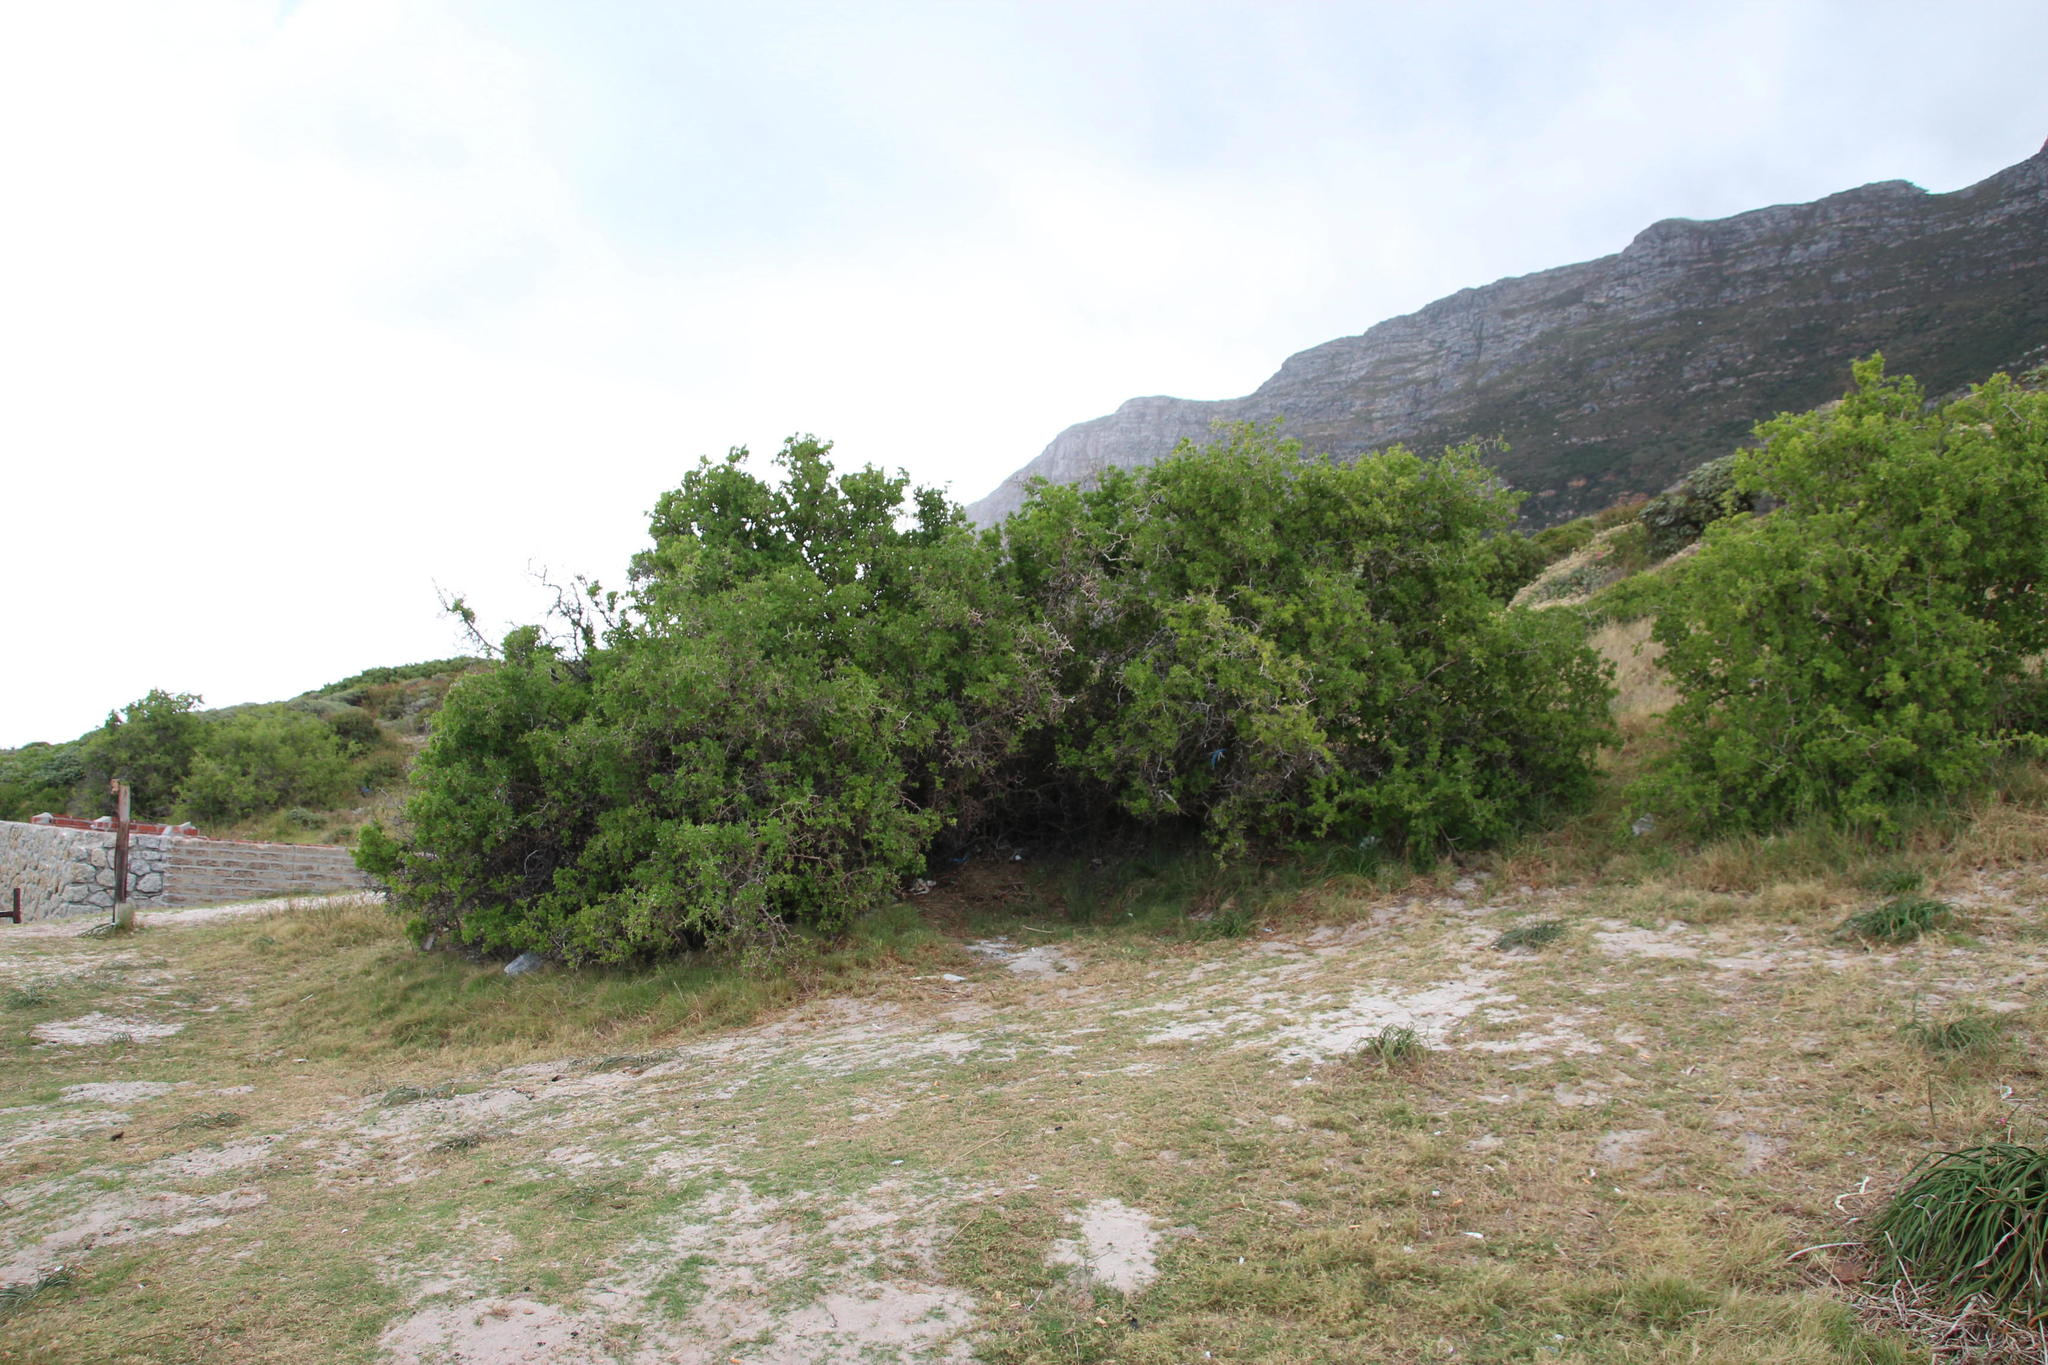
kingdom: Plantae
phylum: Tracheophyta
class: Magnoliopsida
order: Solanales
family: Solanaceae
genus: Lycium
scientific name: Lycium ferocissimum
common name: African boxthorn
